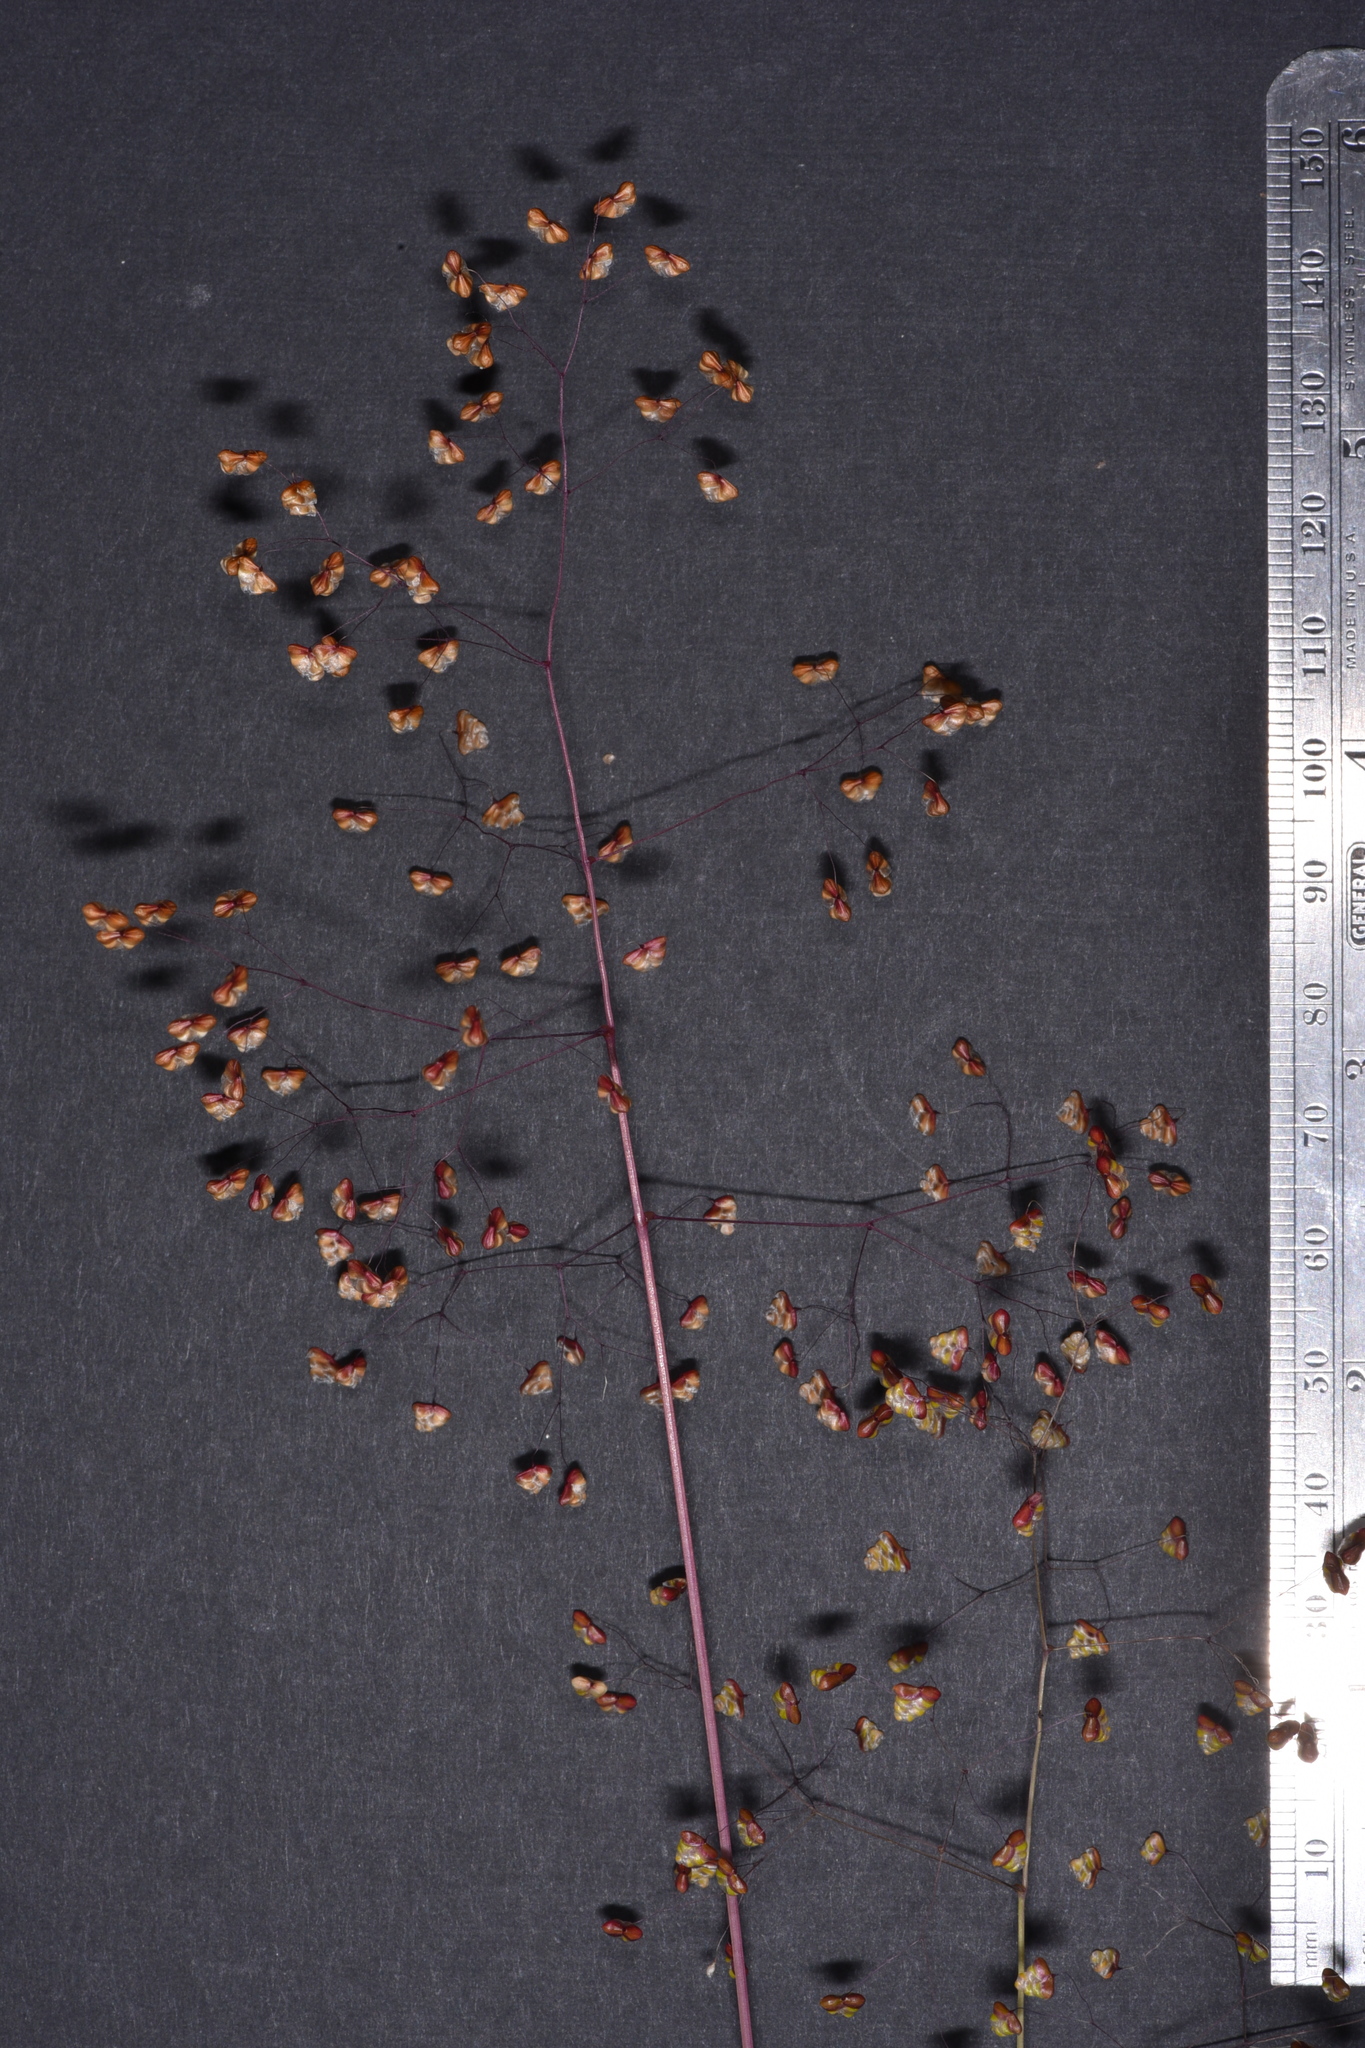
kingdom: Plantae
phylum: Tracheophyta
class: Liliopsida
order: Poales
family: Poaceae
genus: Briza
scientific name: Briza minor
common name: Lesser quaking-grass
